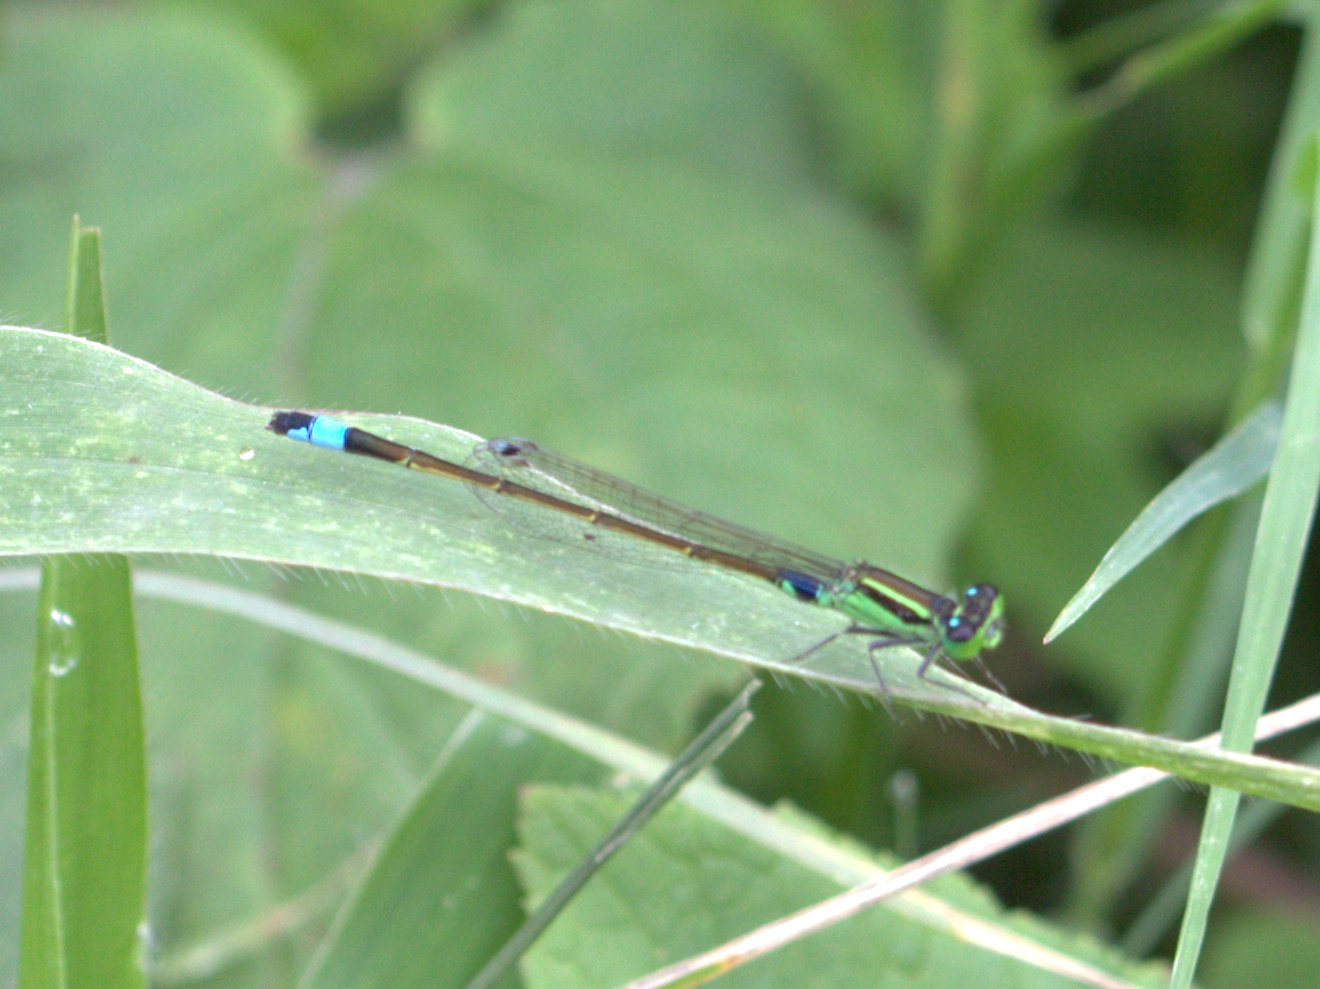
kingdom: Animalia
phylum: Arthropoda
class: Insecta
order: Odonata
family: Coenagrionidae
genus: Ischnura
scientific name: Ischnura senegalensis
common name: Tropical bluetail
